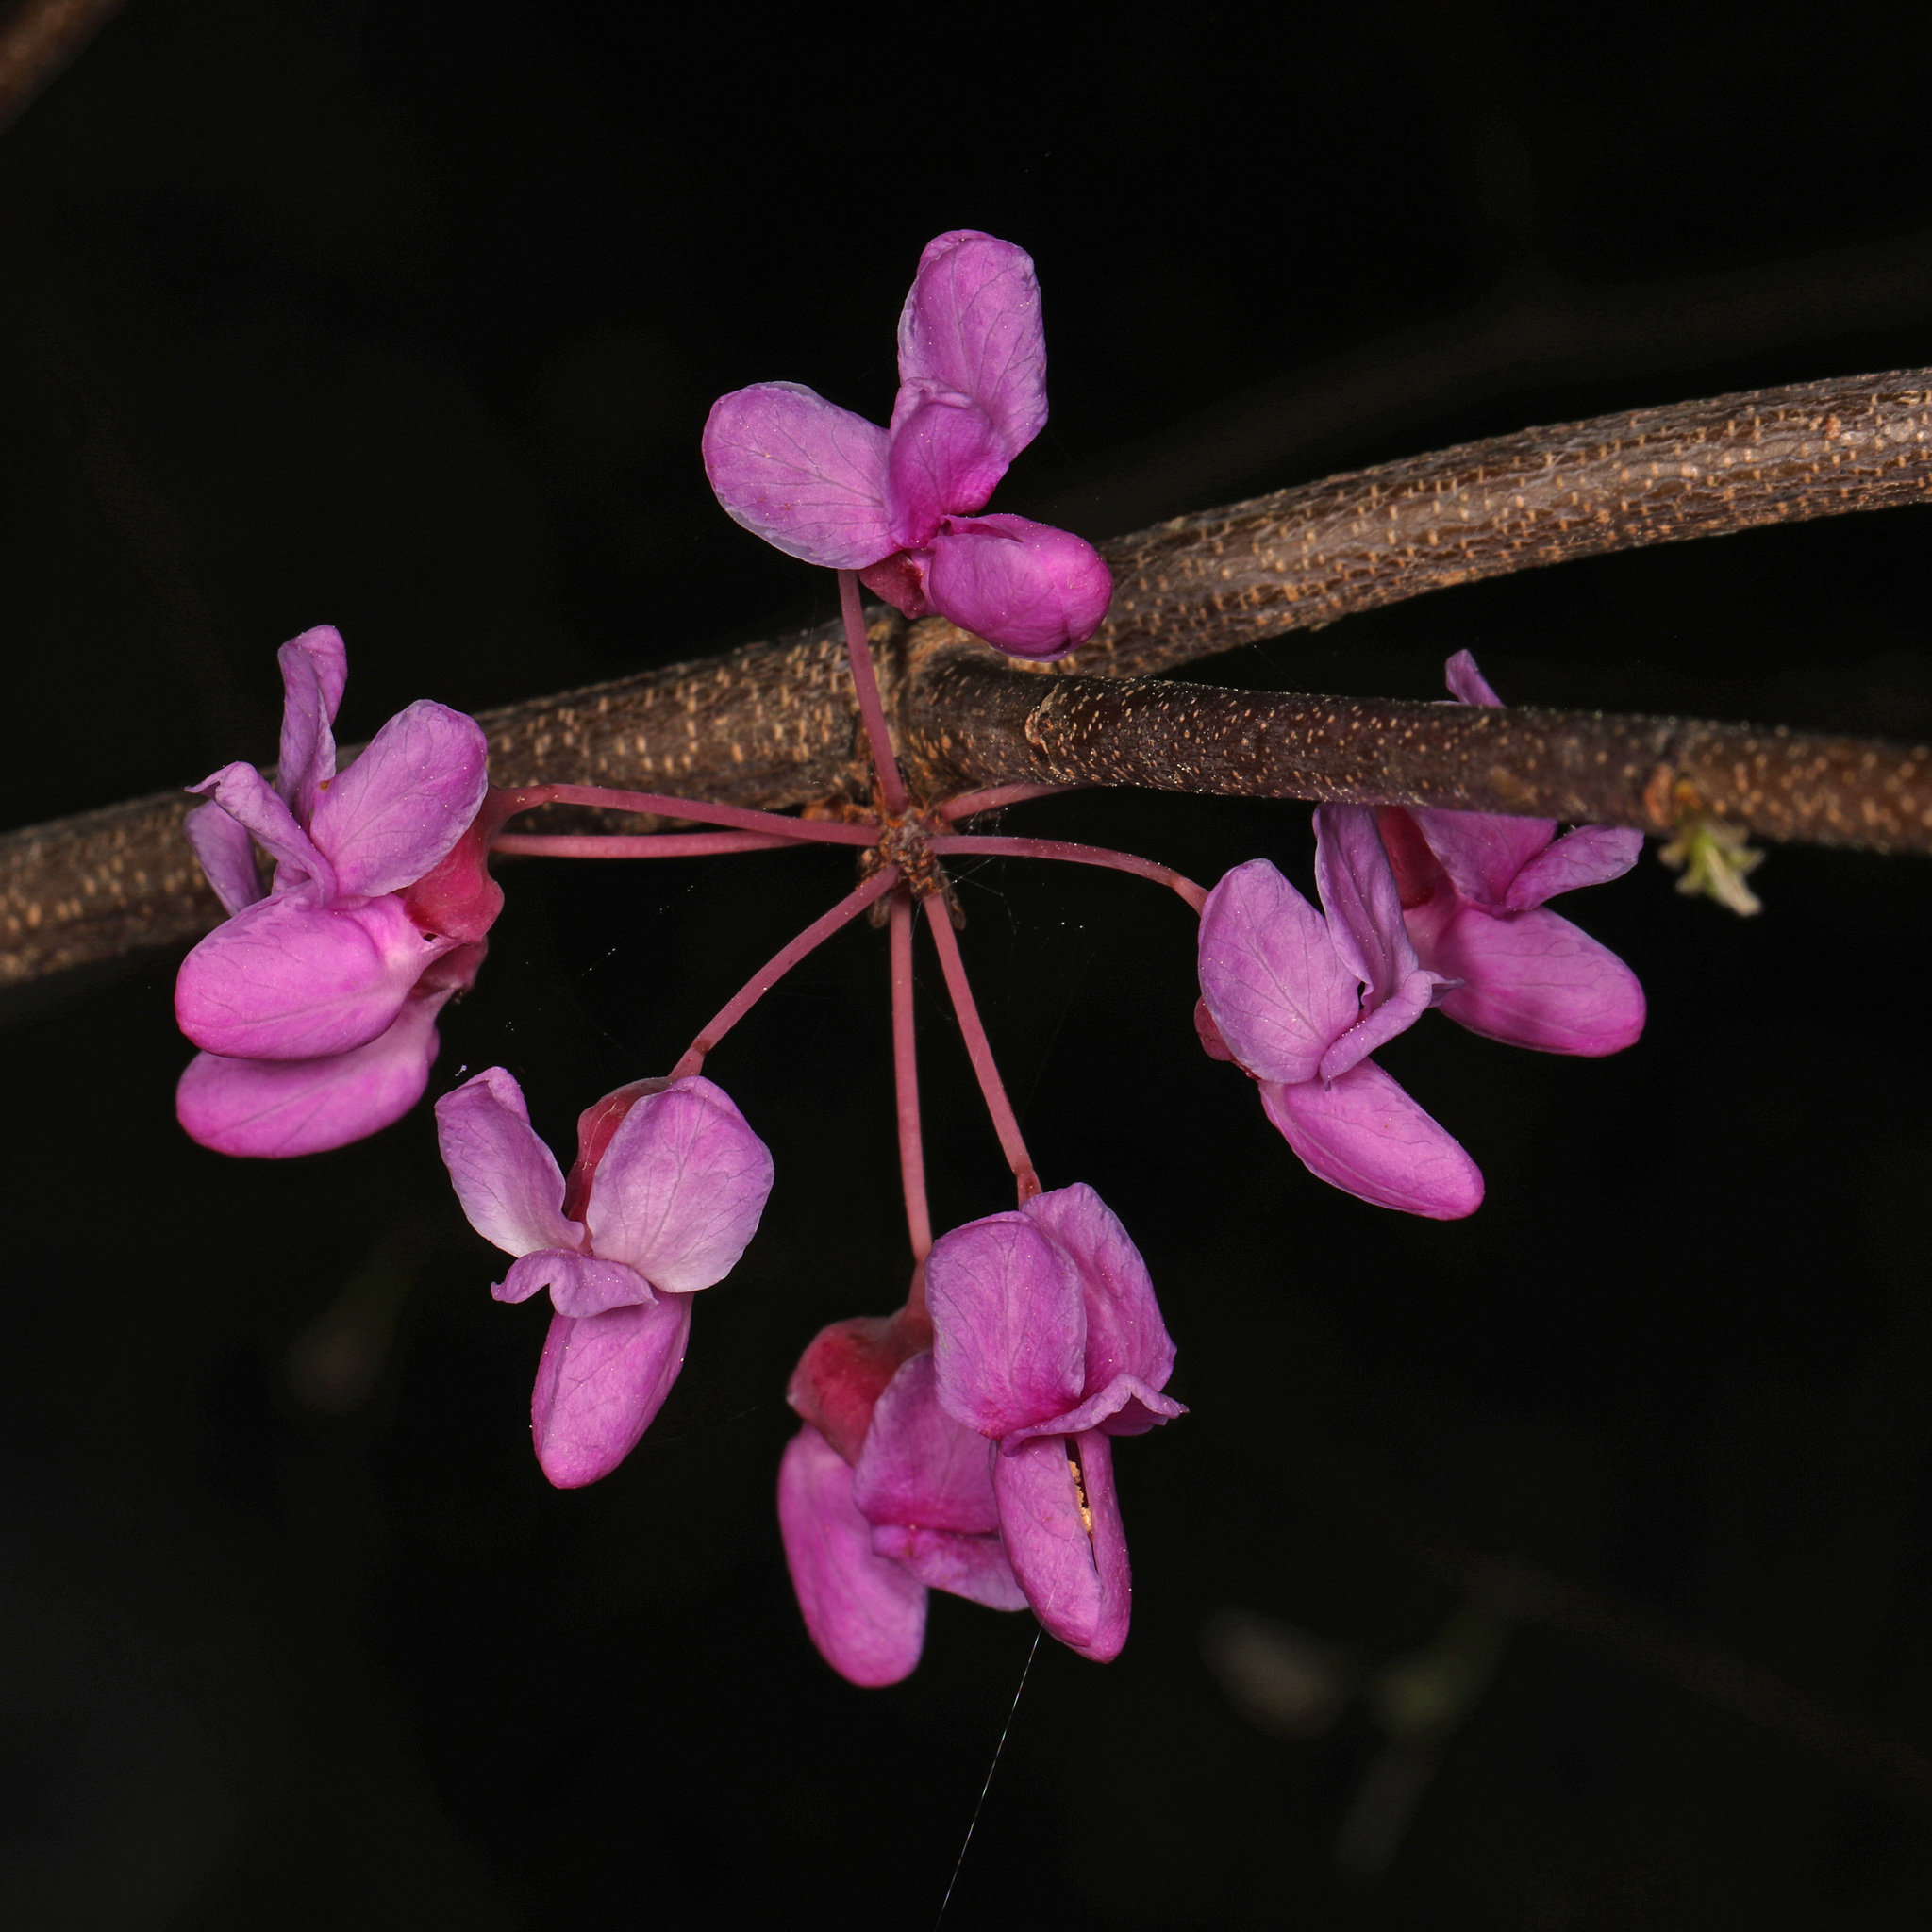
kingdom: Plantae
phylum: Tracheophyta
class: Magnoliopsida
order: Fabales
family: Fabaceae
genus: Cercis
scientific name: Cercis canadensis
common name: Eastern redbud
